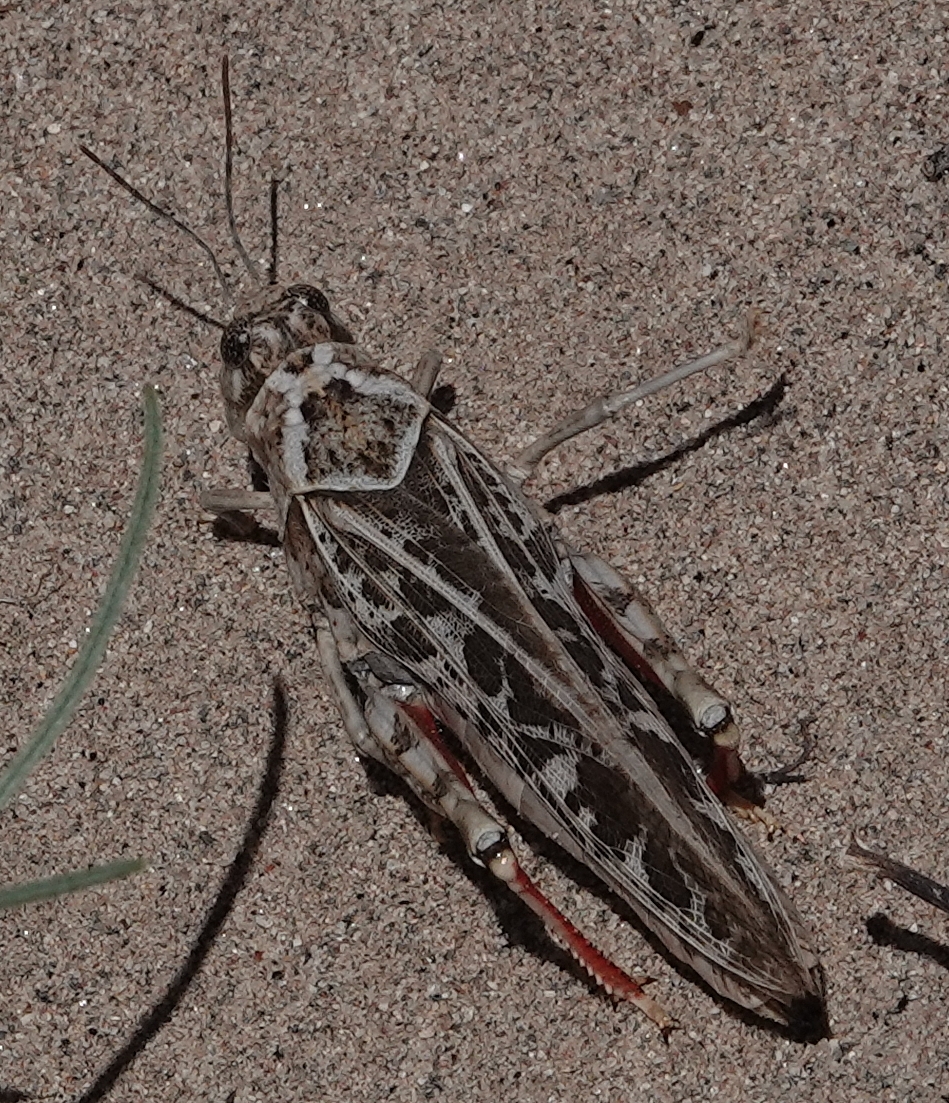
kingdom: Animalia
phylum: Arthropoda
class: Insecta
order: Orthoptera
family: Acrididae
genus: Xanthippus
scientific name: Xanthippus corallipes
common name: Redshanked grasshopper
